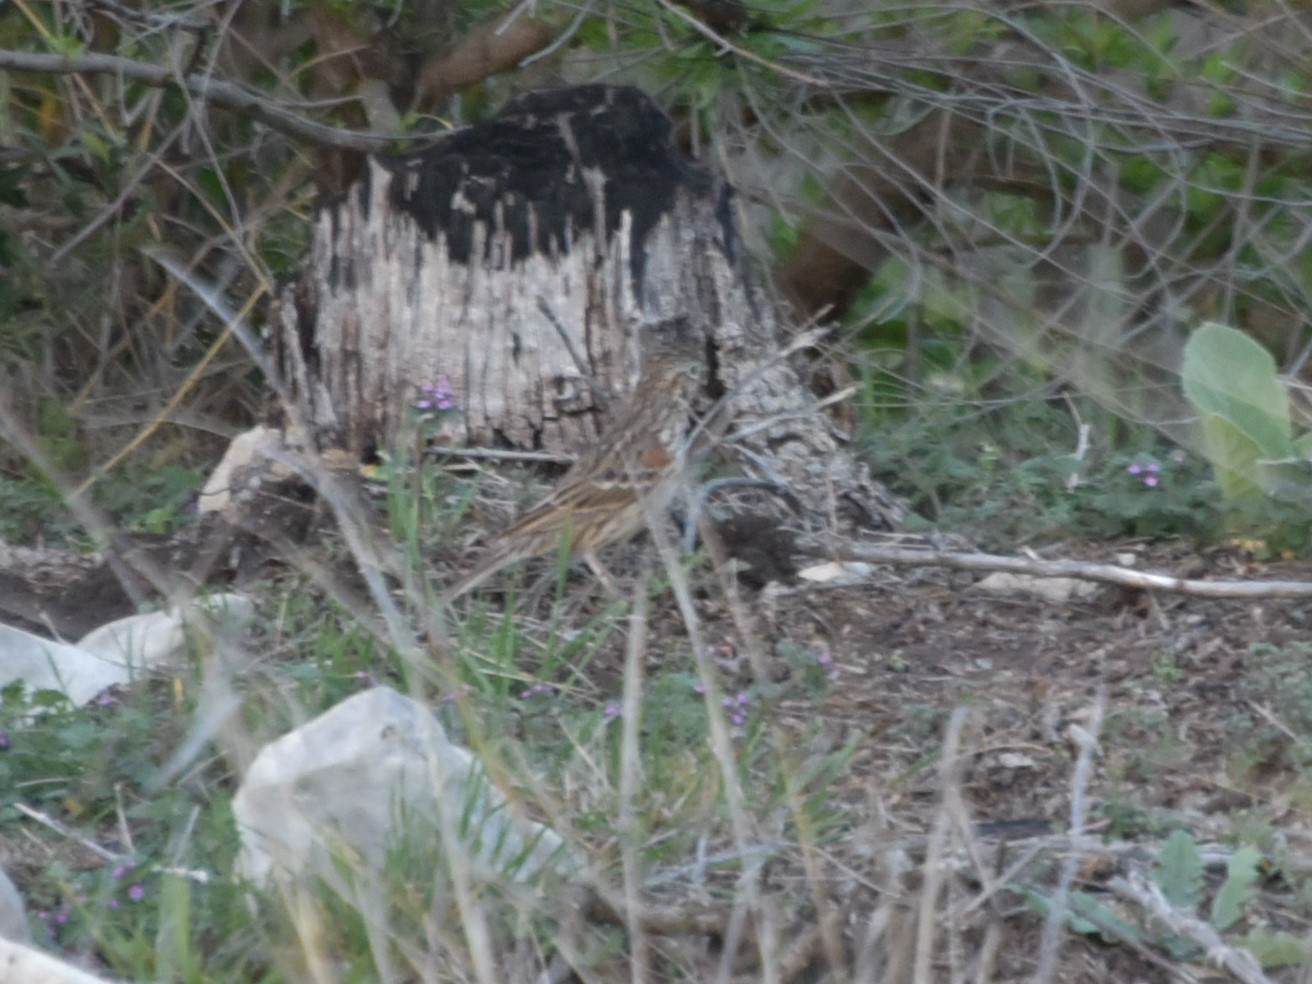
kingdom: Animalia
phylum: Chordata
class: Aves
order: Passeriformes
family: Passerellidae
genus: Pooecetes
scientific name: Pooecetes gramineus
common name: Vesper sparrow
